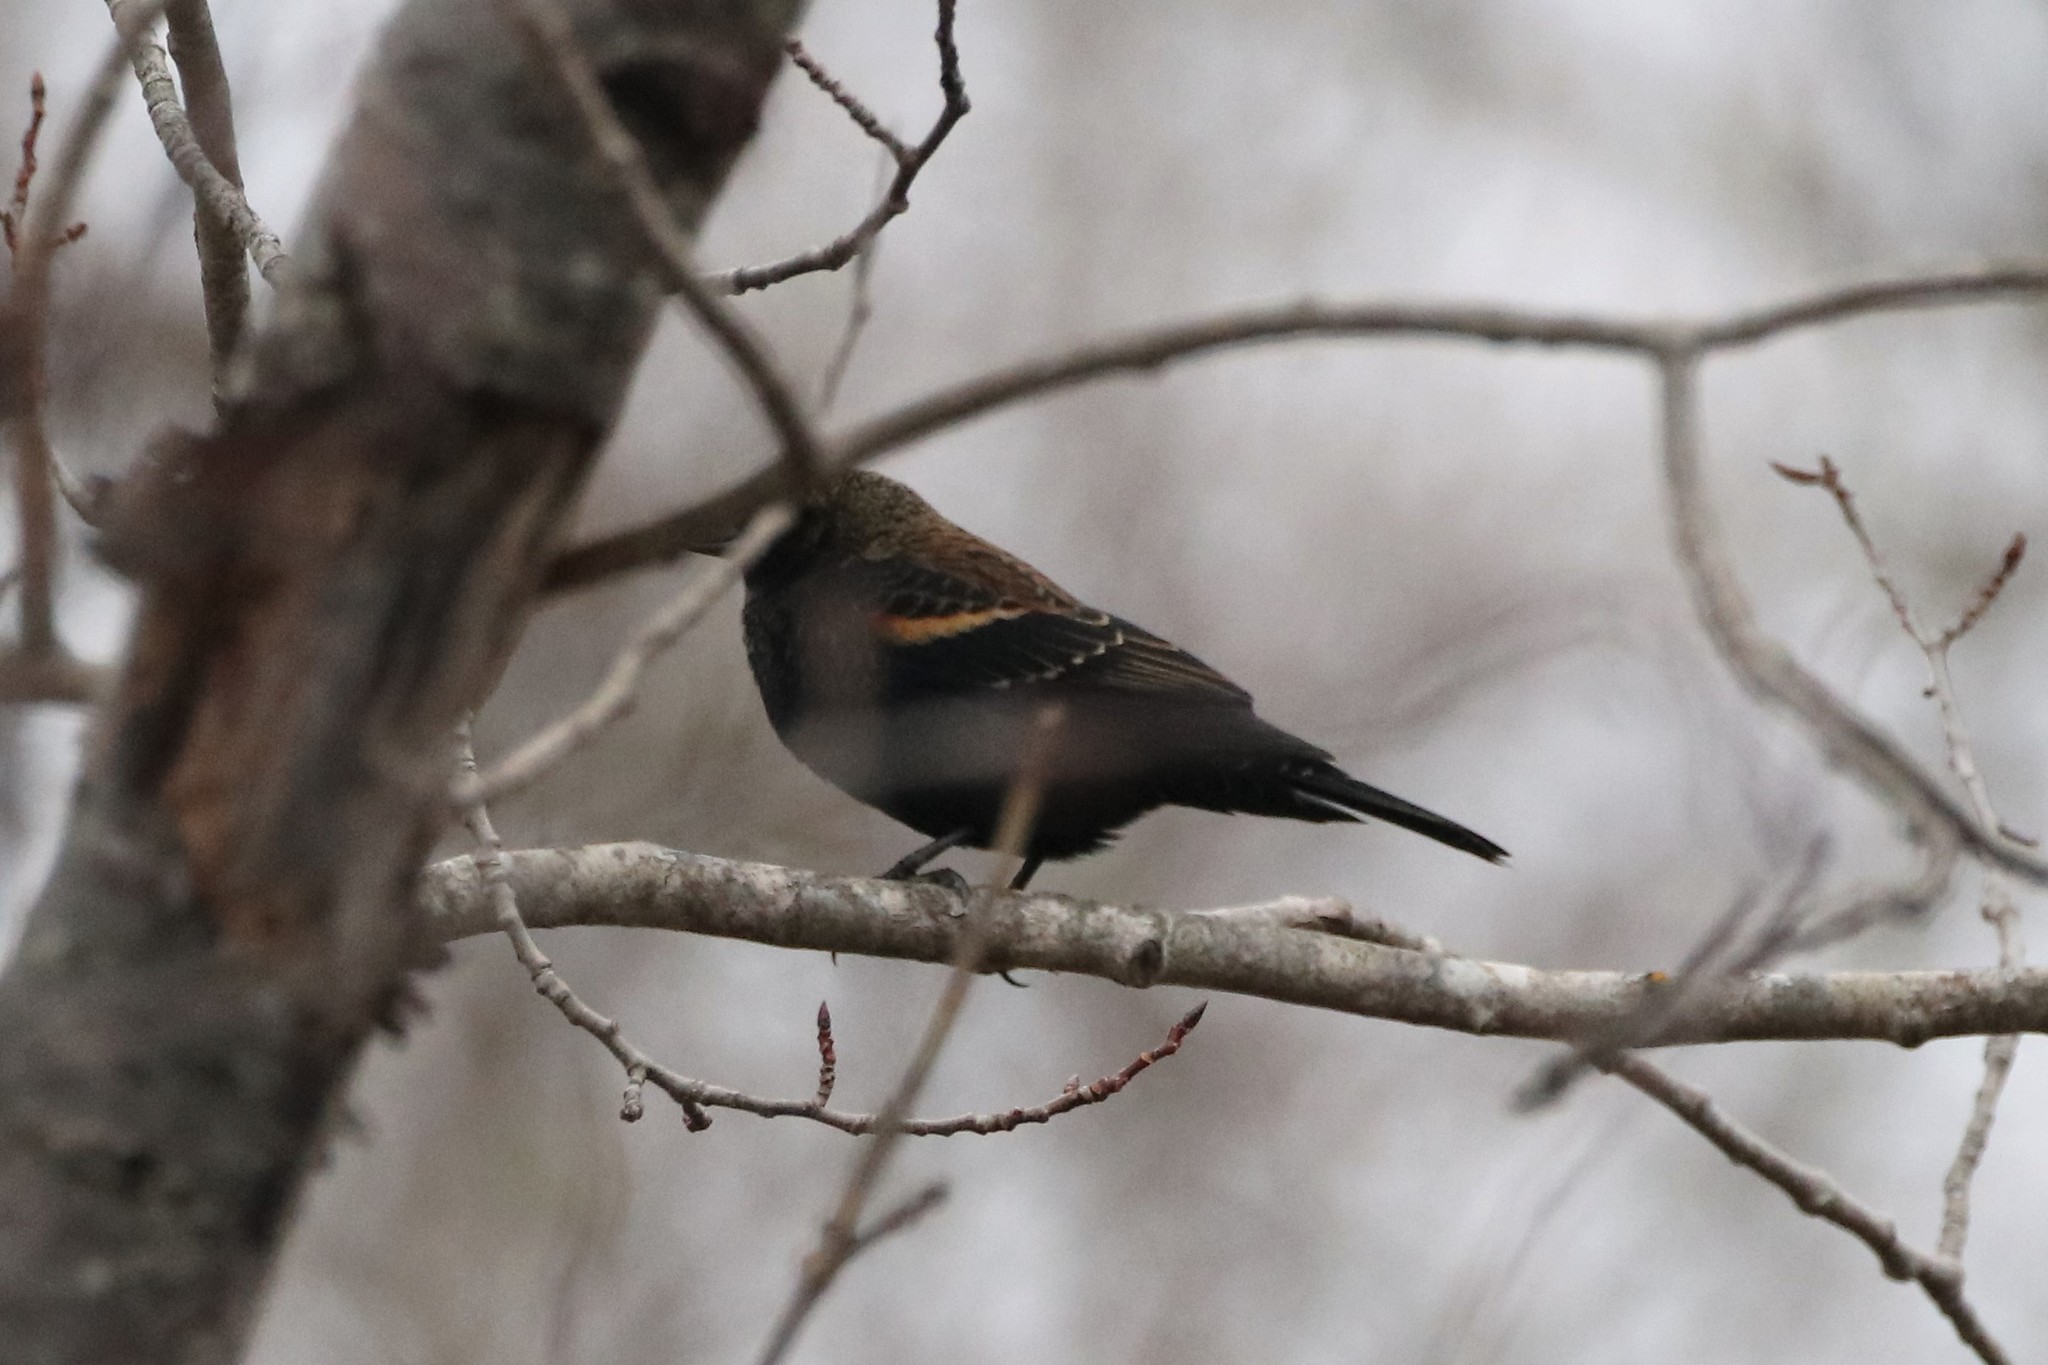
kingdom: Animalia
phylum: Chordata
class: Aves
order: Passeriformes
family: Icteridae
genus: Agelaius
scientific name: Agelaius phoeniceus
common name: Red-winged blackbird
